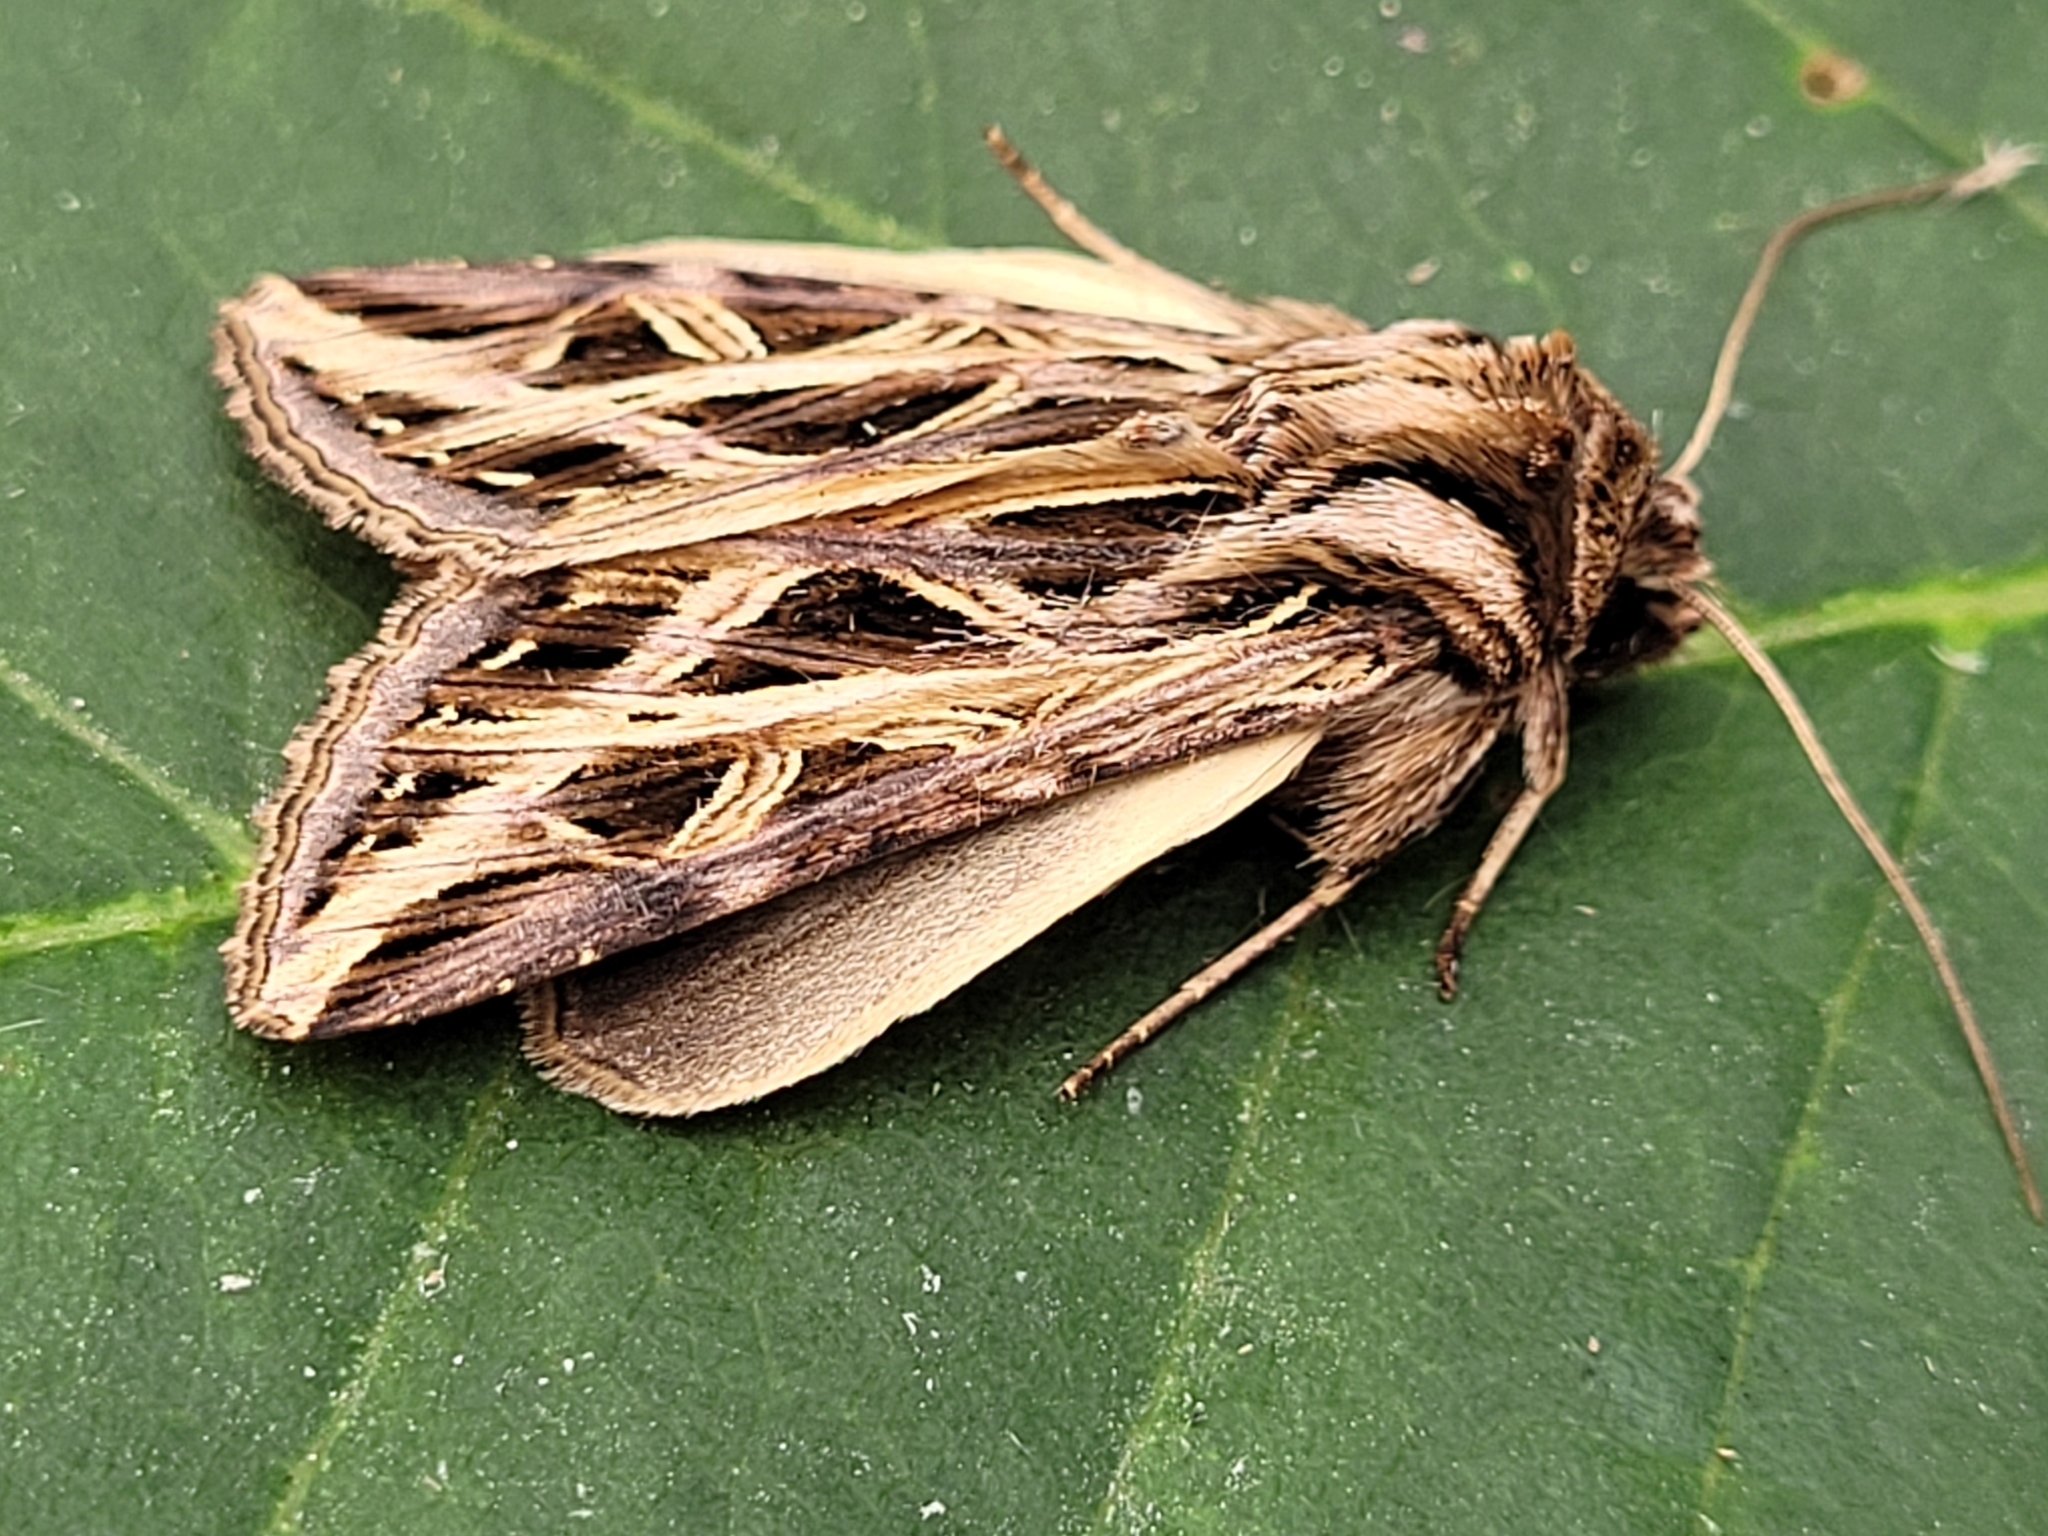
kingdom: Animalia
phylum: Arthropoda
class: Insecta
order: Lepidoptera
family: Noctuidae
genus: Dargida
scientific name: Dargida procinctus
